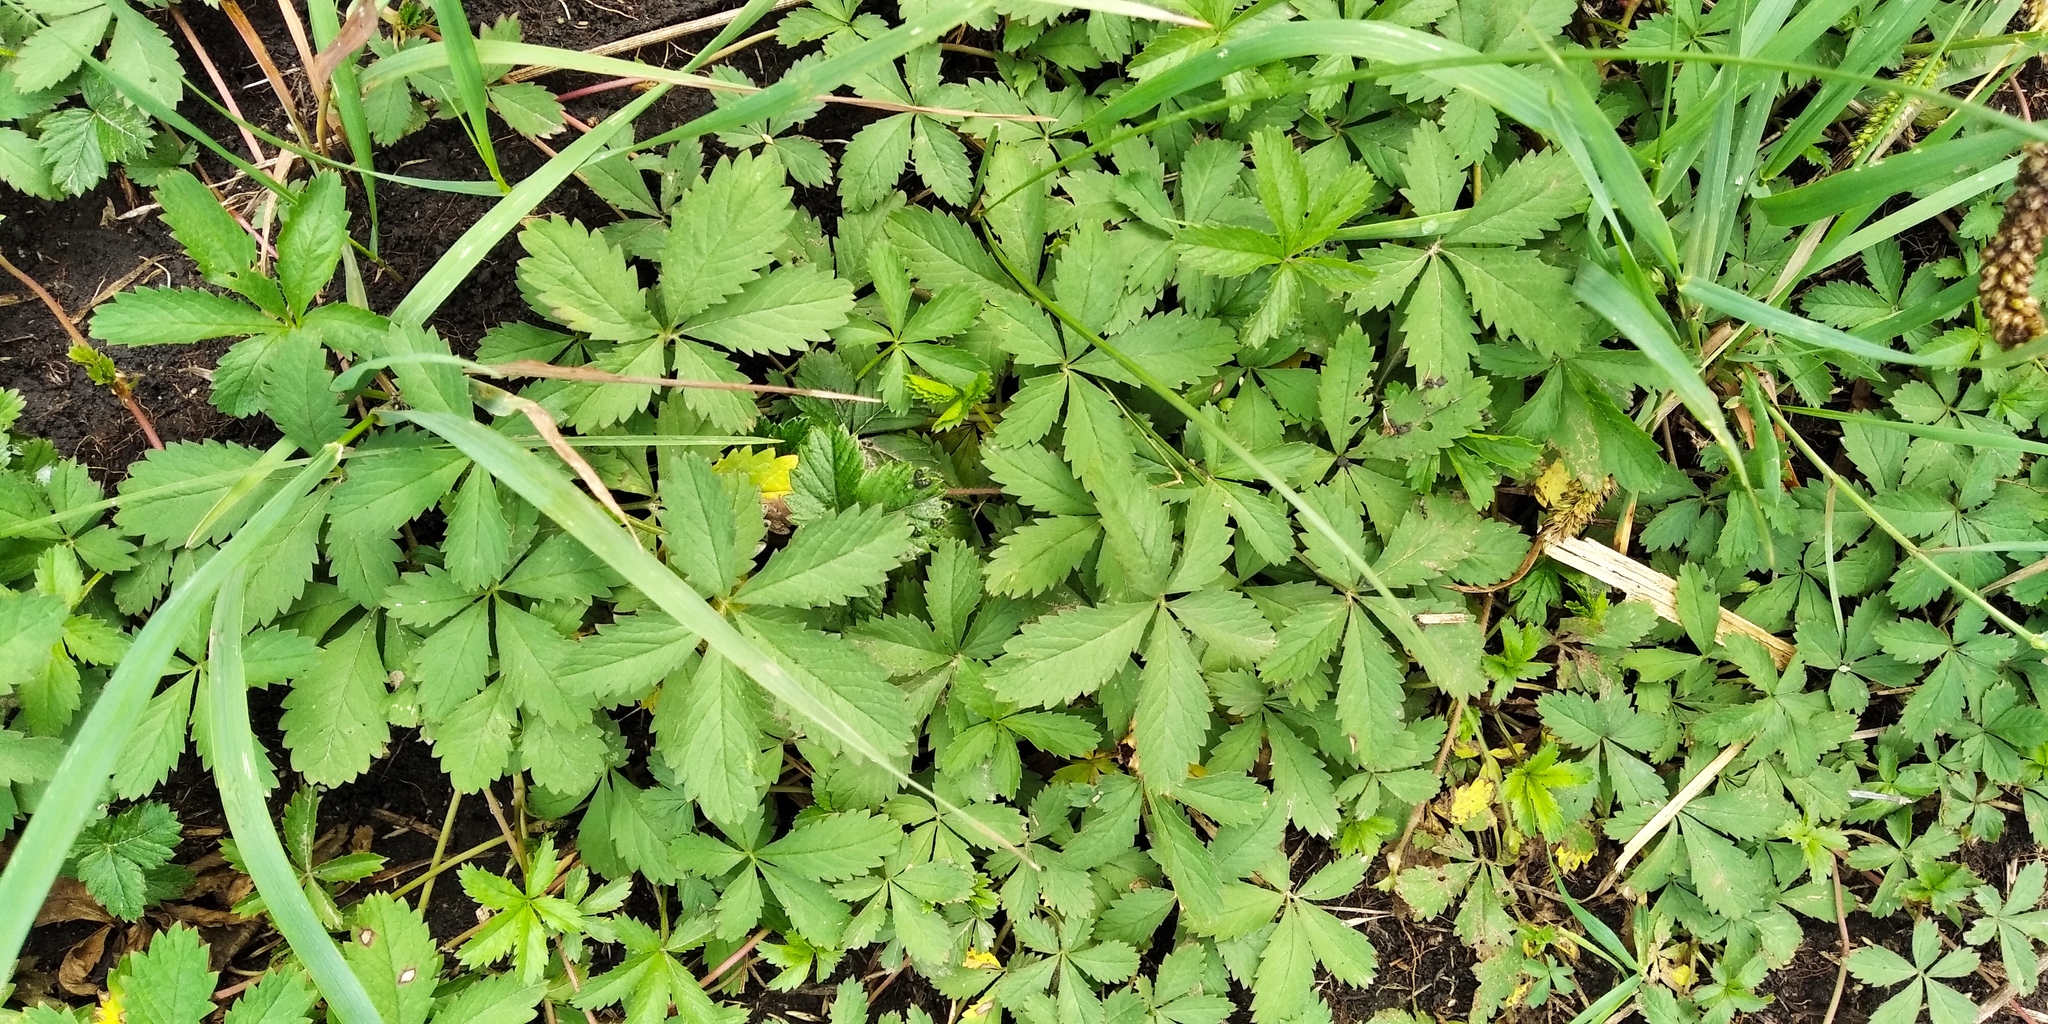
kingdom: Plantae
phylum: Tracheophyta
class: Magnoliopsida
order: Rosales
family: Rosaceae
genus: Potentilla
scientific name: Potentilla reptans
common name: Creeping cinquefoil
